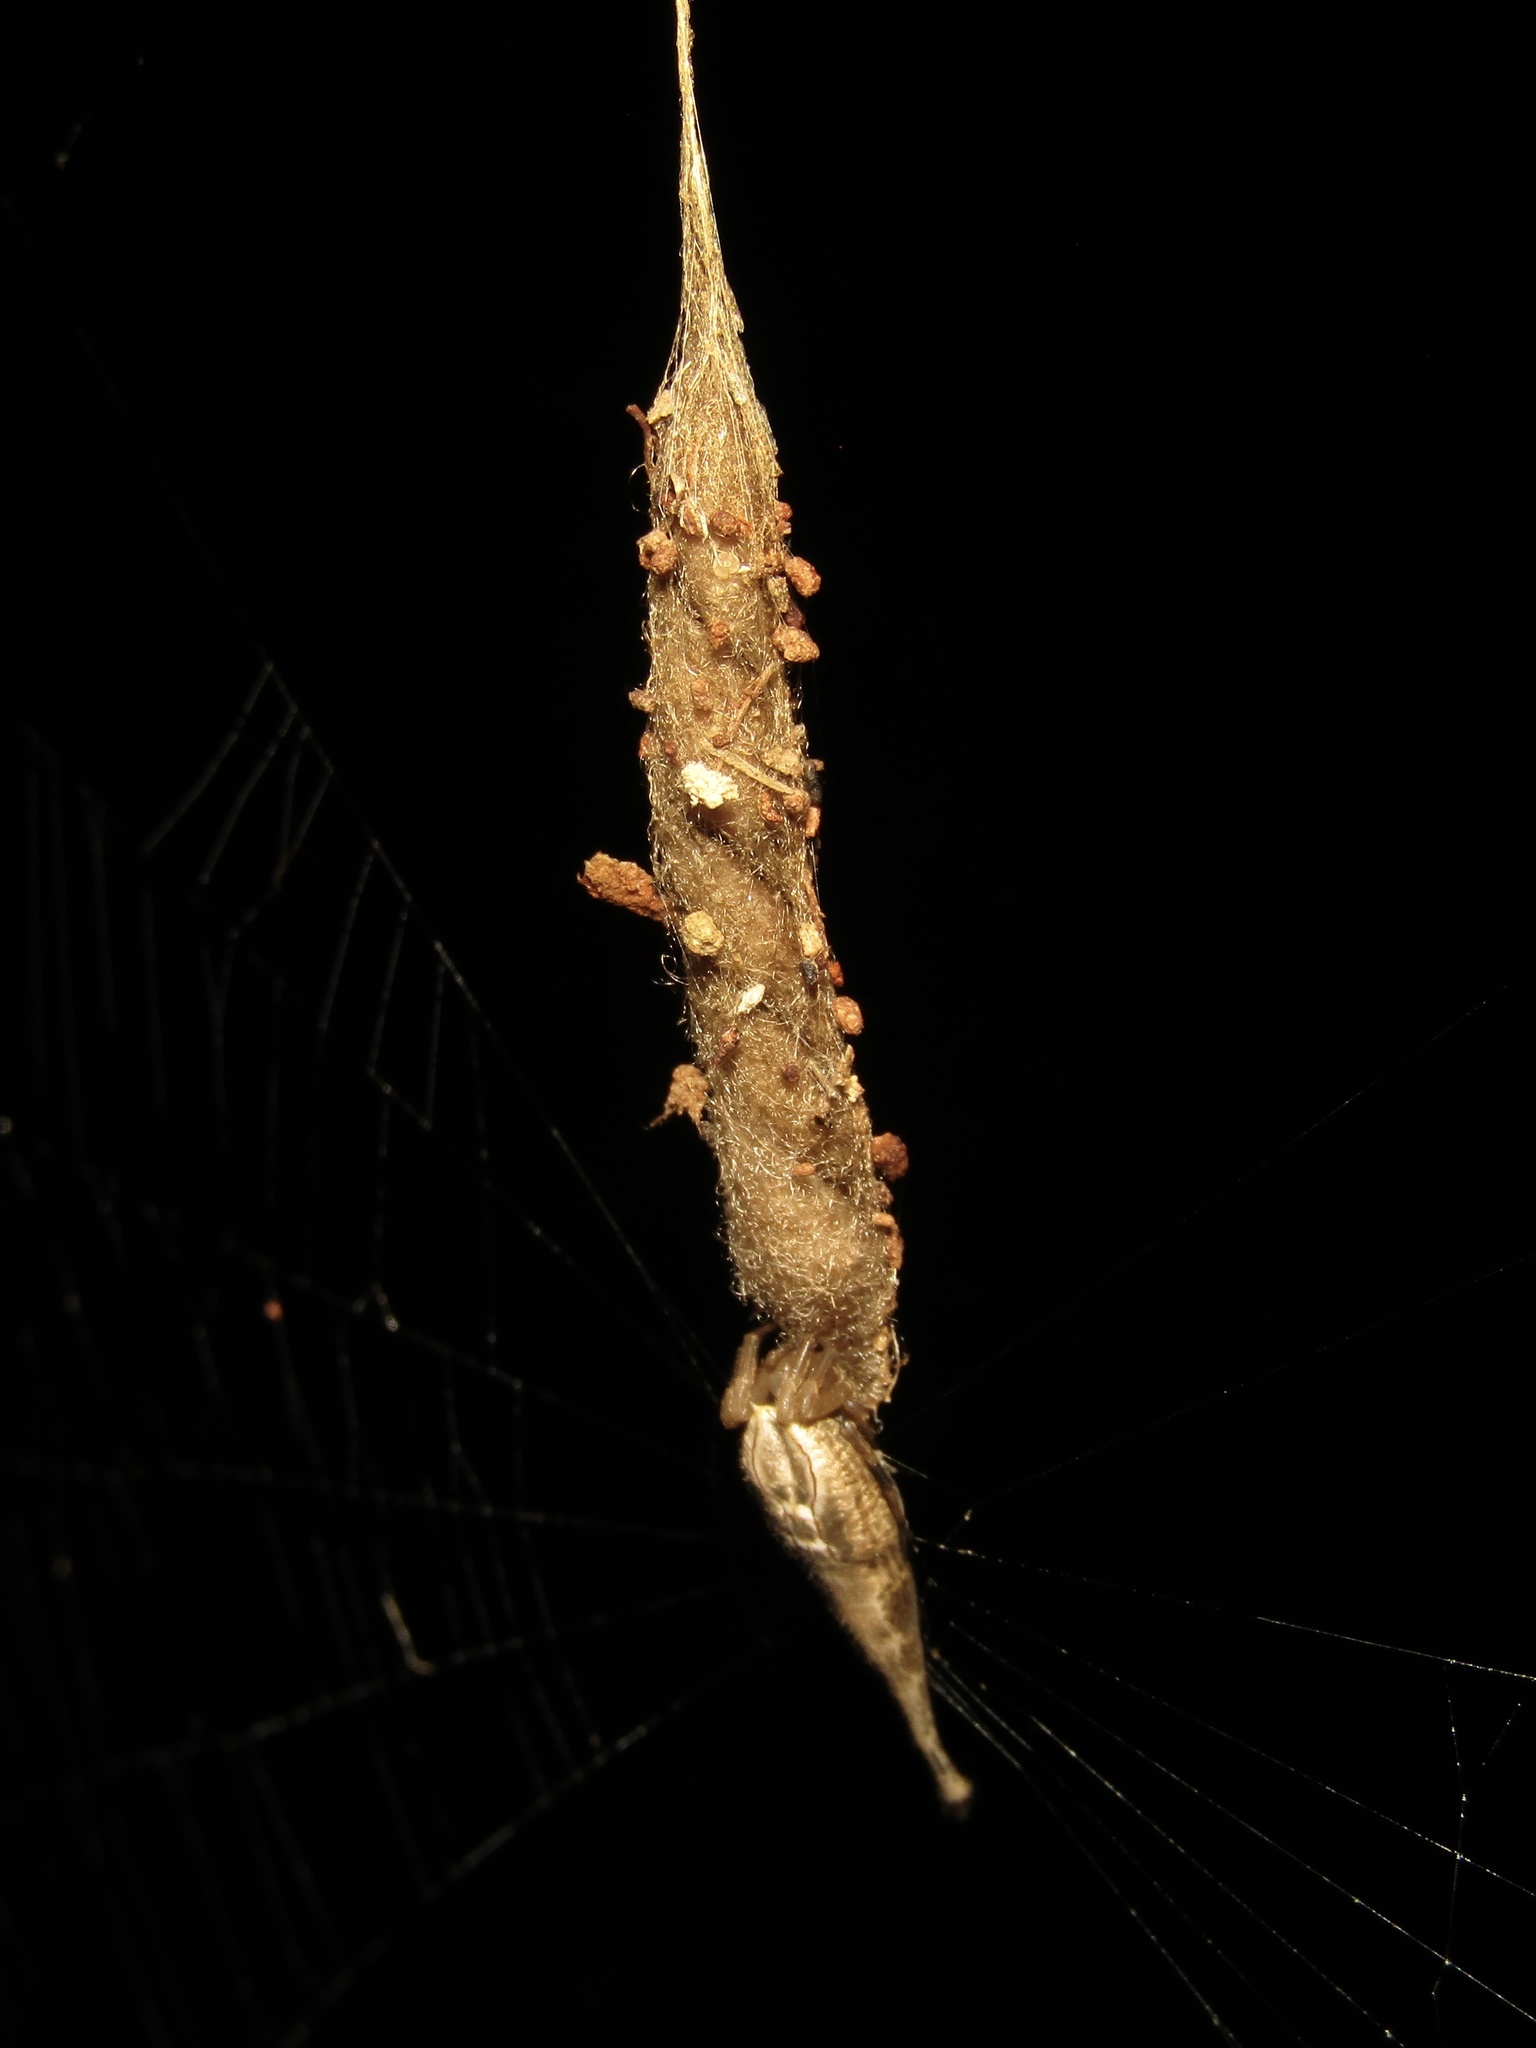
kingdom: Animalia
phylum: Arthropoda
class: Arachnida
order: Araneae
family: Araneidae
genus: Arachnura
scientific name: Arachnura higginsi
